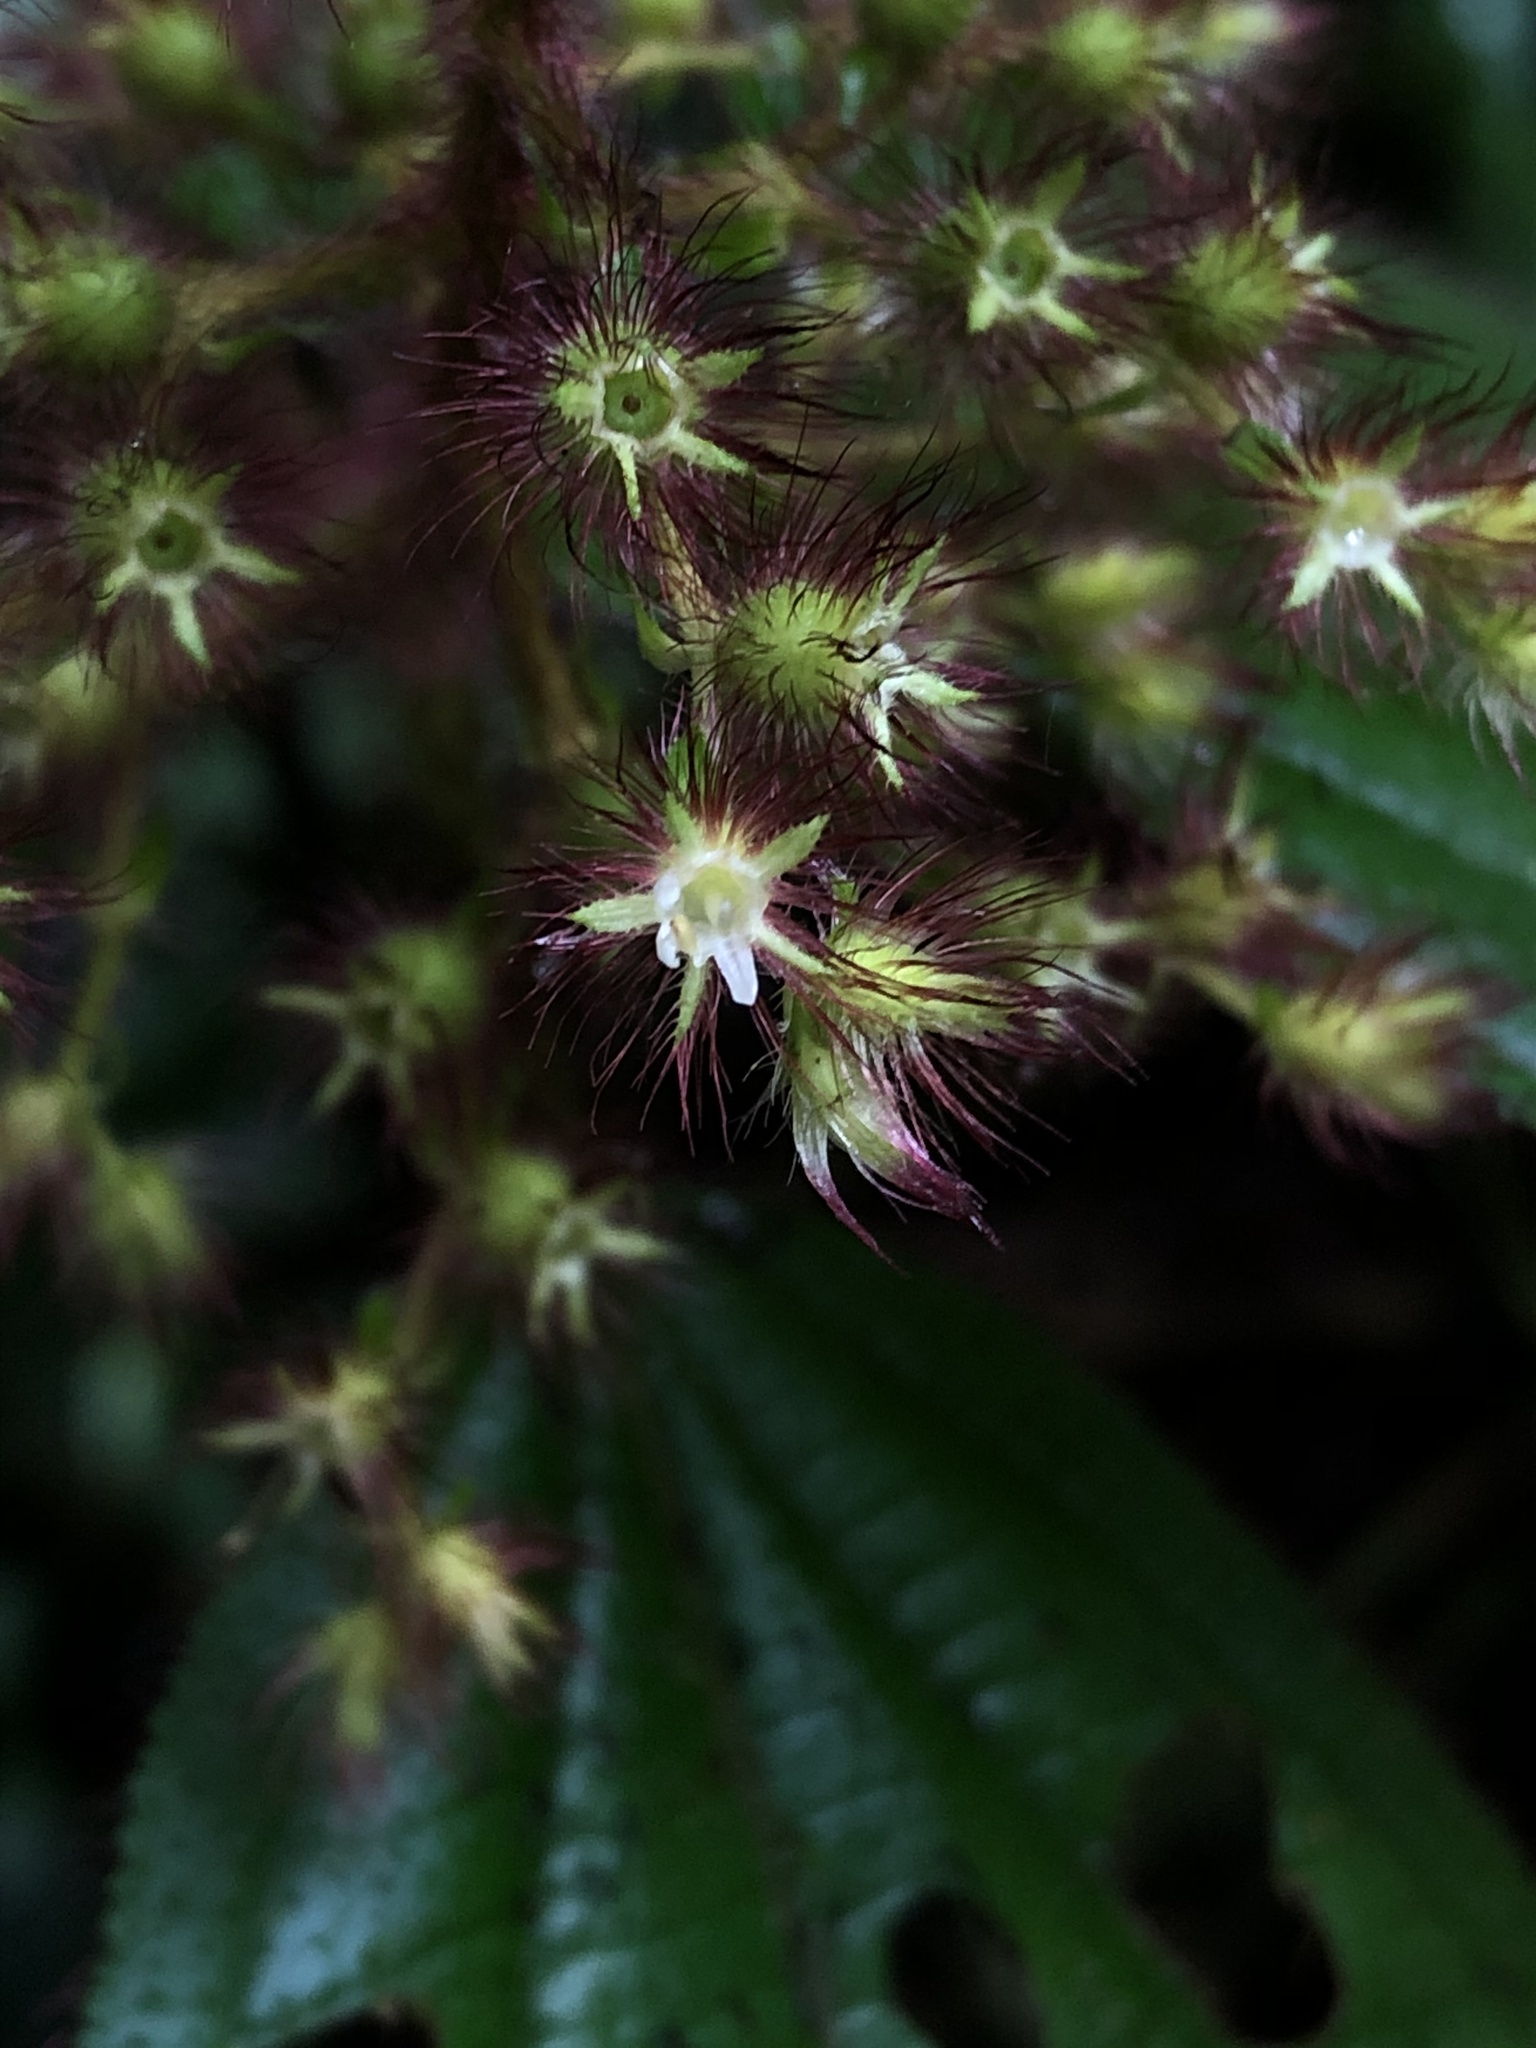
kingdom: Plantae
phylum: Tracheophyta
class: Magnoliopsida
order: Myrtales
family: Melastomataceae
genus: Miconia
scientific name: Miconia longicoma
